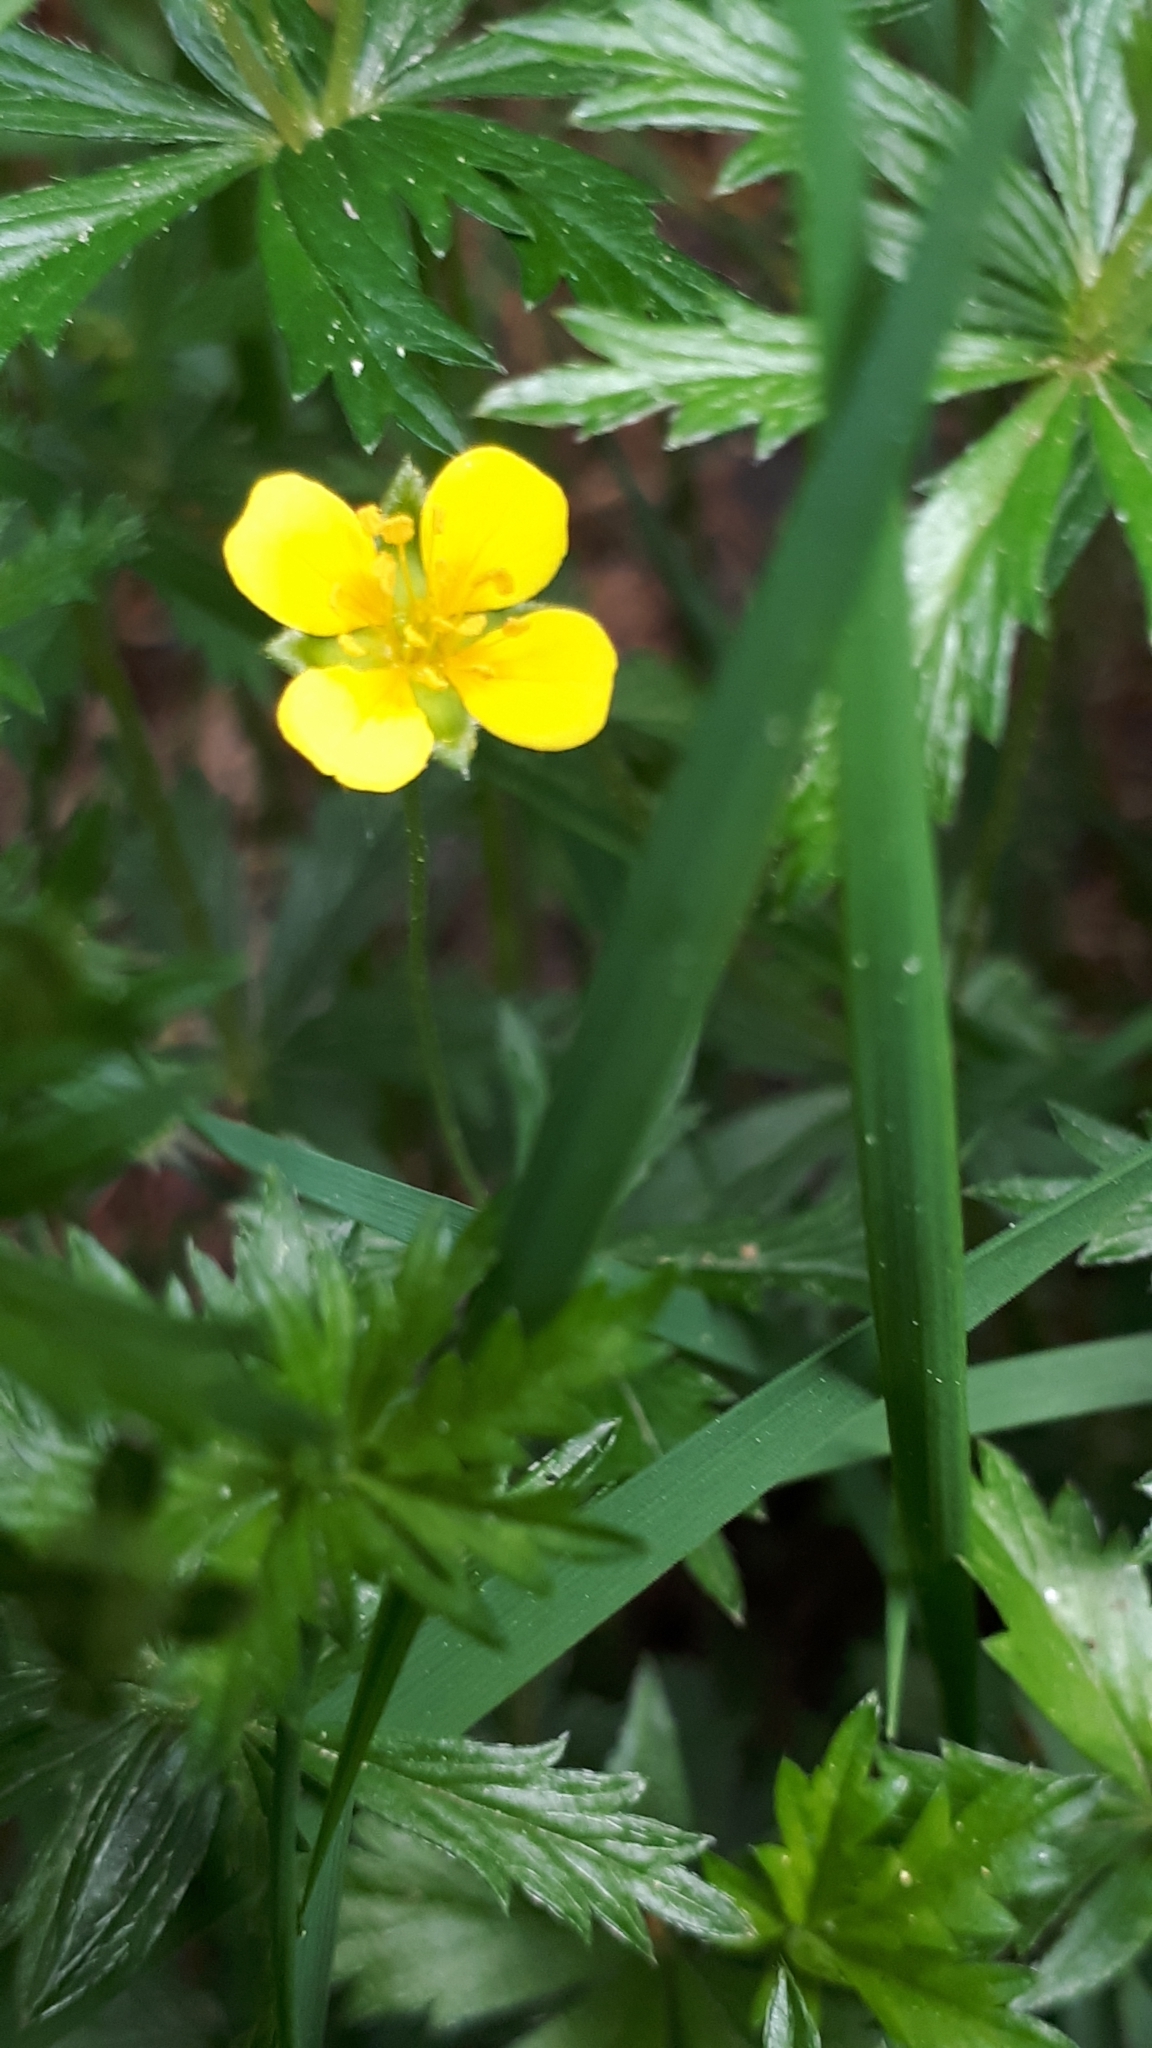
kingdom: Plantae
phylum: Tracheophyta
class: Magnoliopsida
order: Rosales
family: Rosaceae
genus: Potentilla
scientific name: Potentilla erecta
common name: Tormentil
